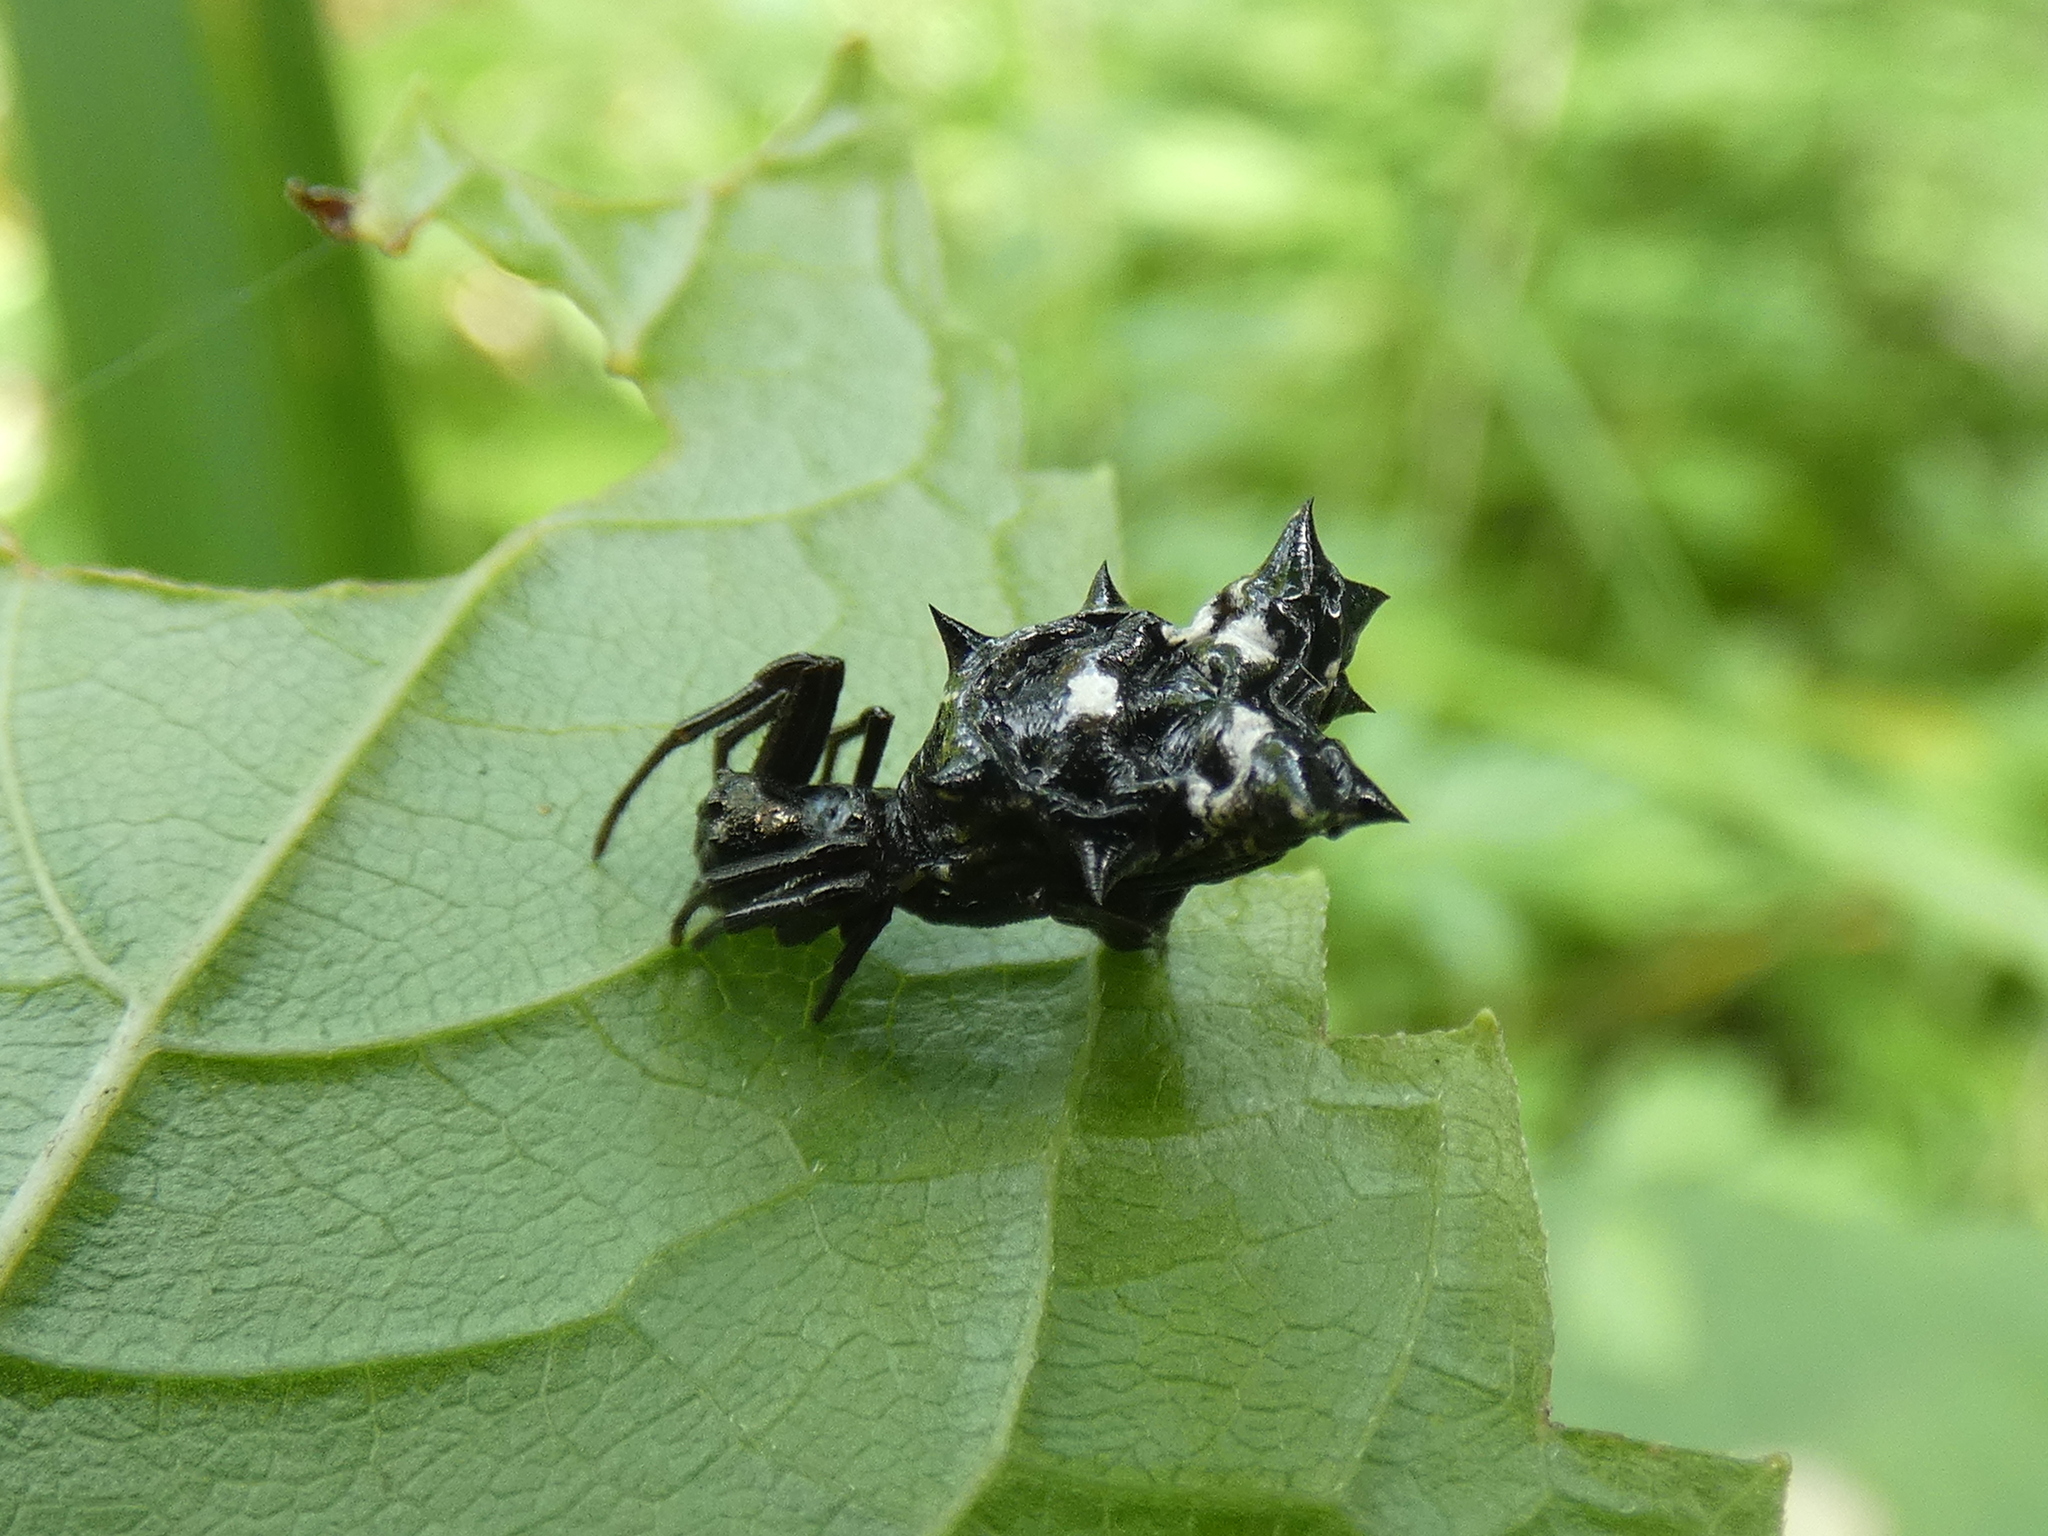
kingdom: Animalia
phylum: Arthropoda
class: Arachnida
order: Araneae
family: Araneidae
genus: Micrathena
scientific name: Micrathena gracilis
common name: Orb weavers
